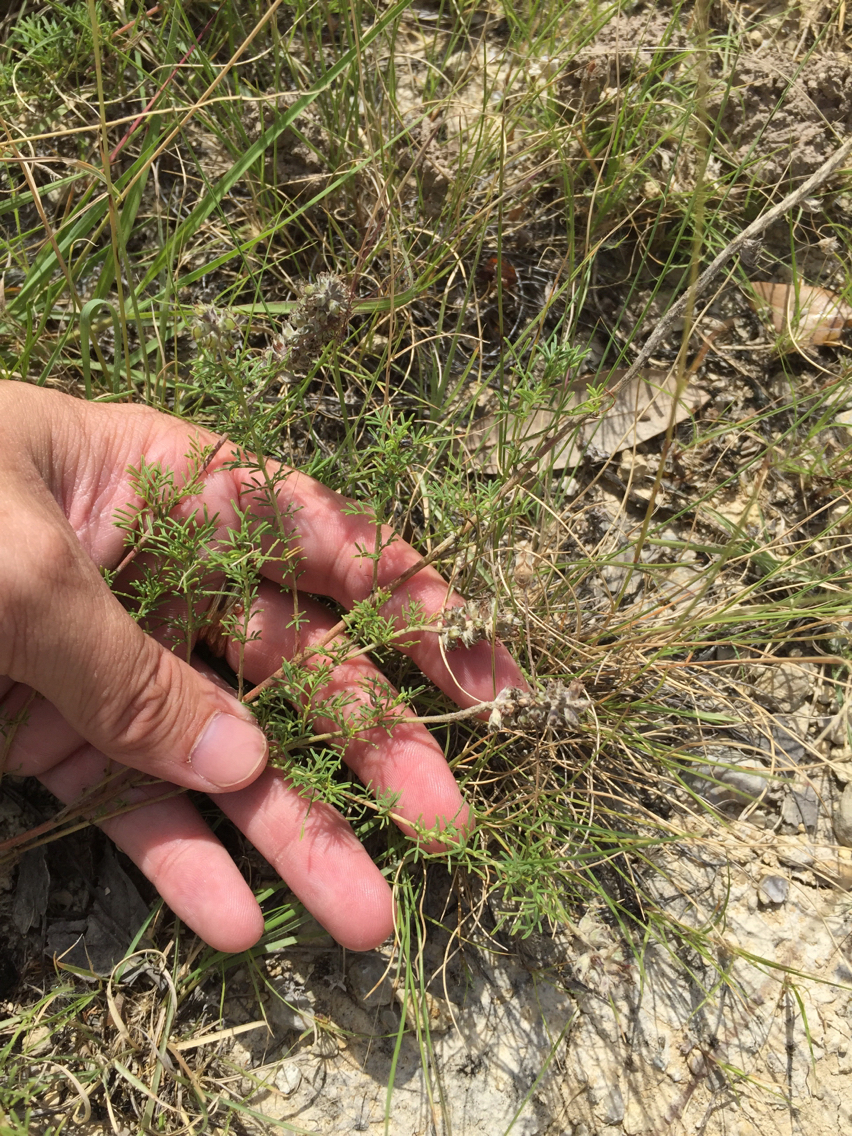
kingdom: Plantae
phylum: Tracheophyta
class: Magnoliopsida
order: Fabales
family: Fabaceae
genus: Dalea
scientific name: Dalea reverchonii
